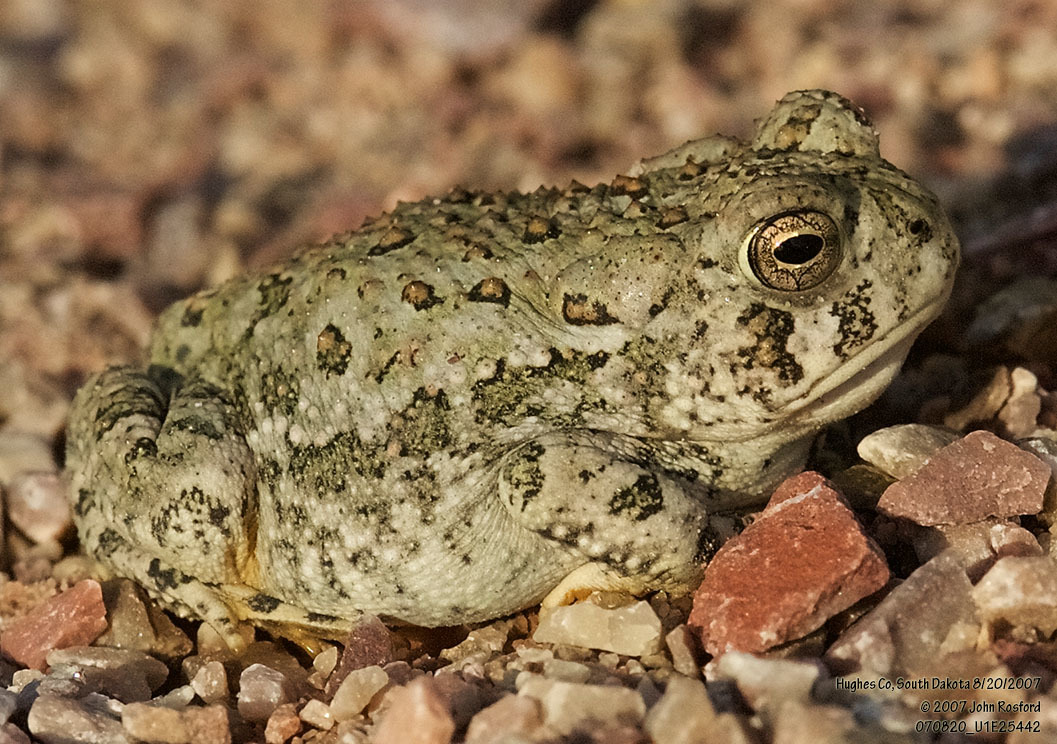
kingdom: Animalia
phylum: Chordata
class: Amphibia
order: Anura
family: Bufonidae
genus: Anaxyrus
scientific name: Anaxyrus woodhousii
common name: Woodhouse's toad
